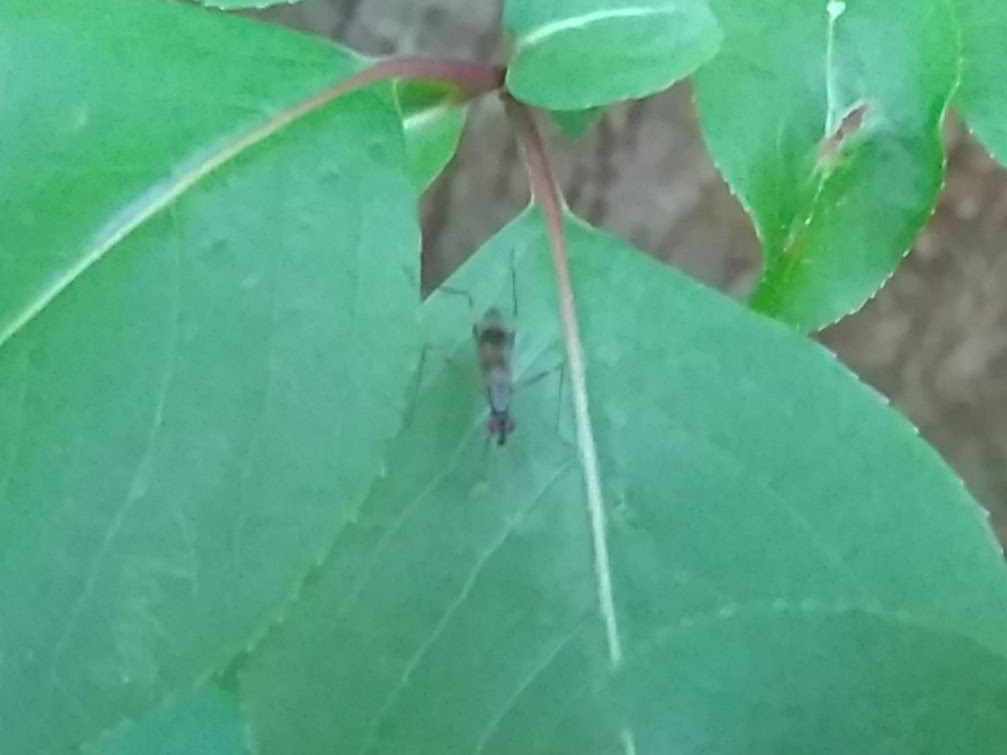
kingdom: Animalia
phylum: Arthropoda
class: Insecta
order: Diptera
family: Micropezidae
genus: Rainieria
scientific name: Rainieria antennaepes
